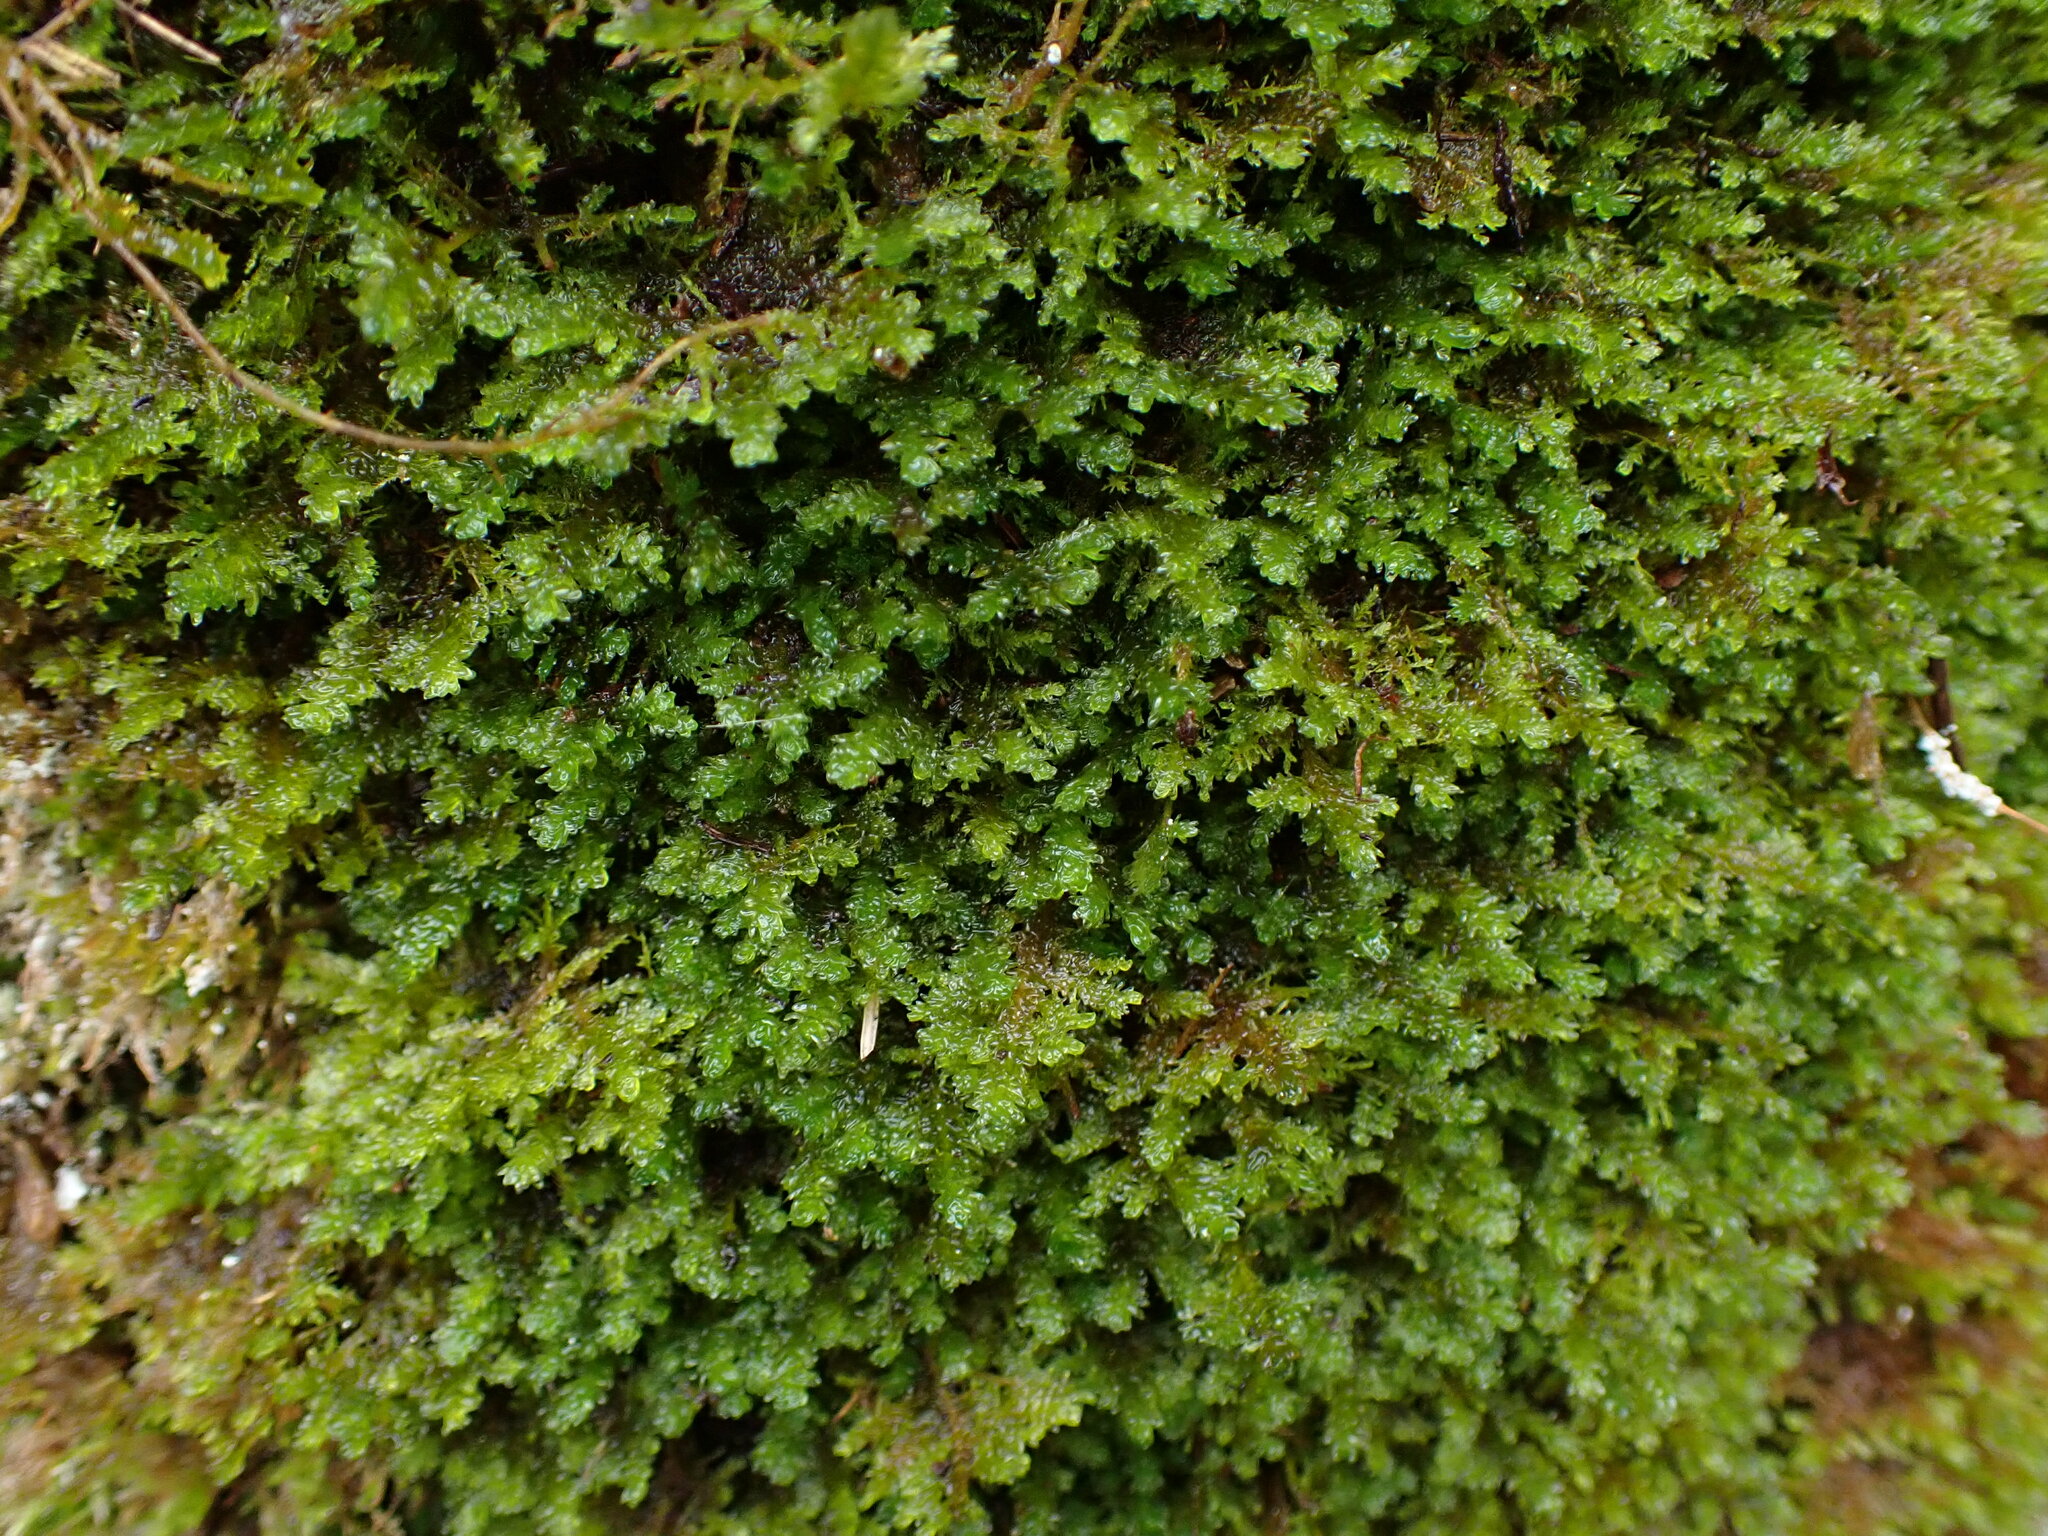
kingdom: Plantae
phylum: Bryophyta
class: Bryopsida
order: Hypnales
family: Neckeraceae
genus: Metaneckera
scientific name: Metaneckera menziesii
